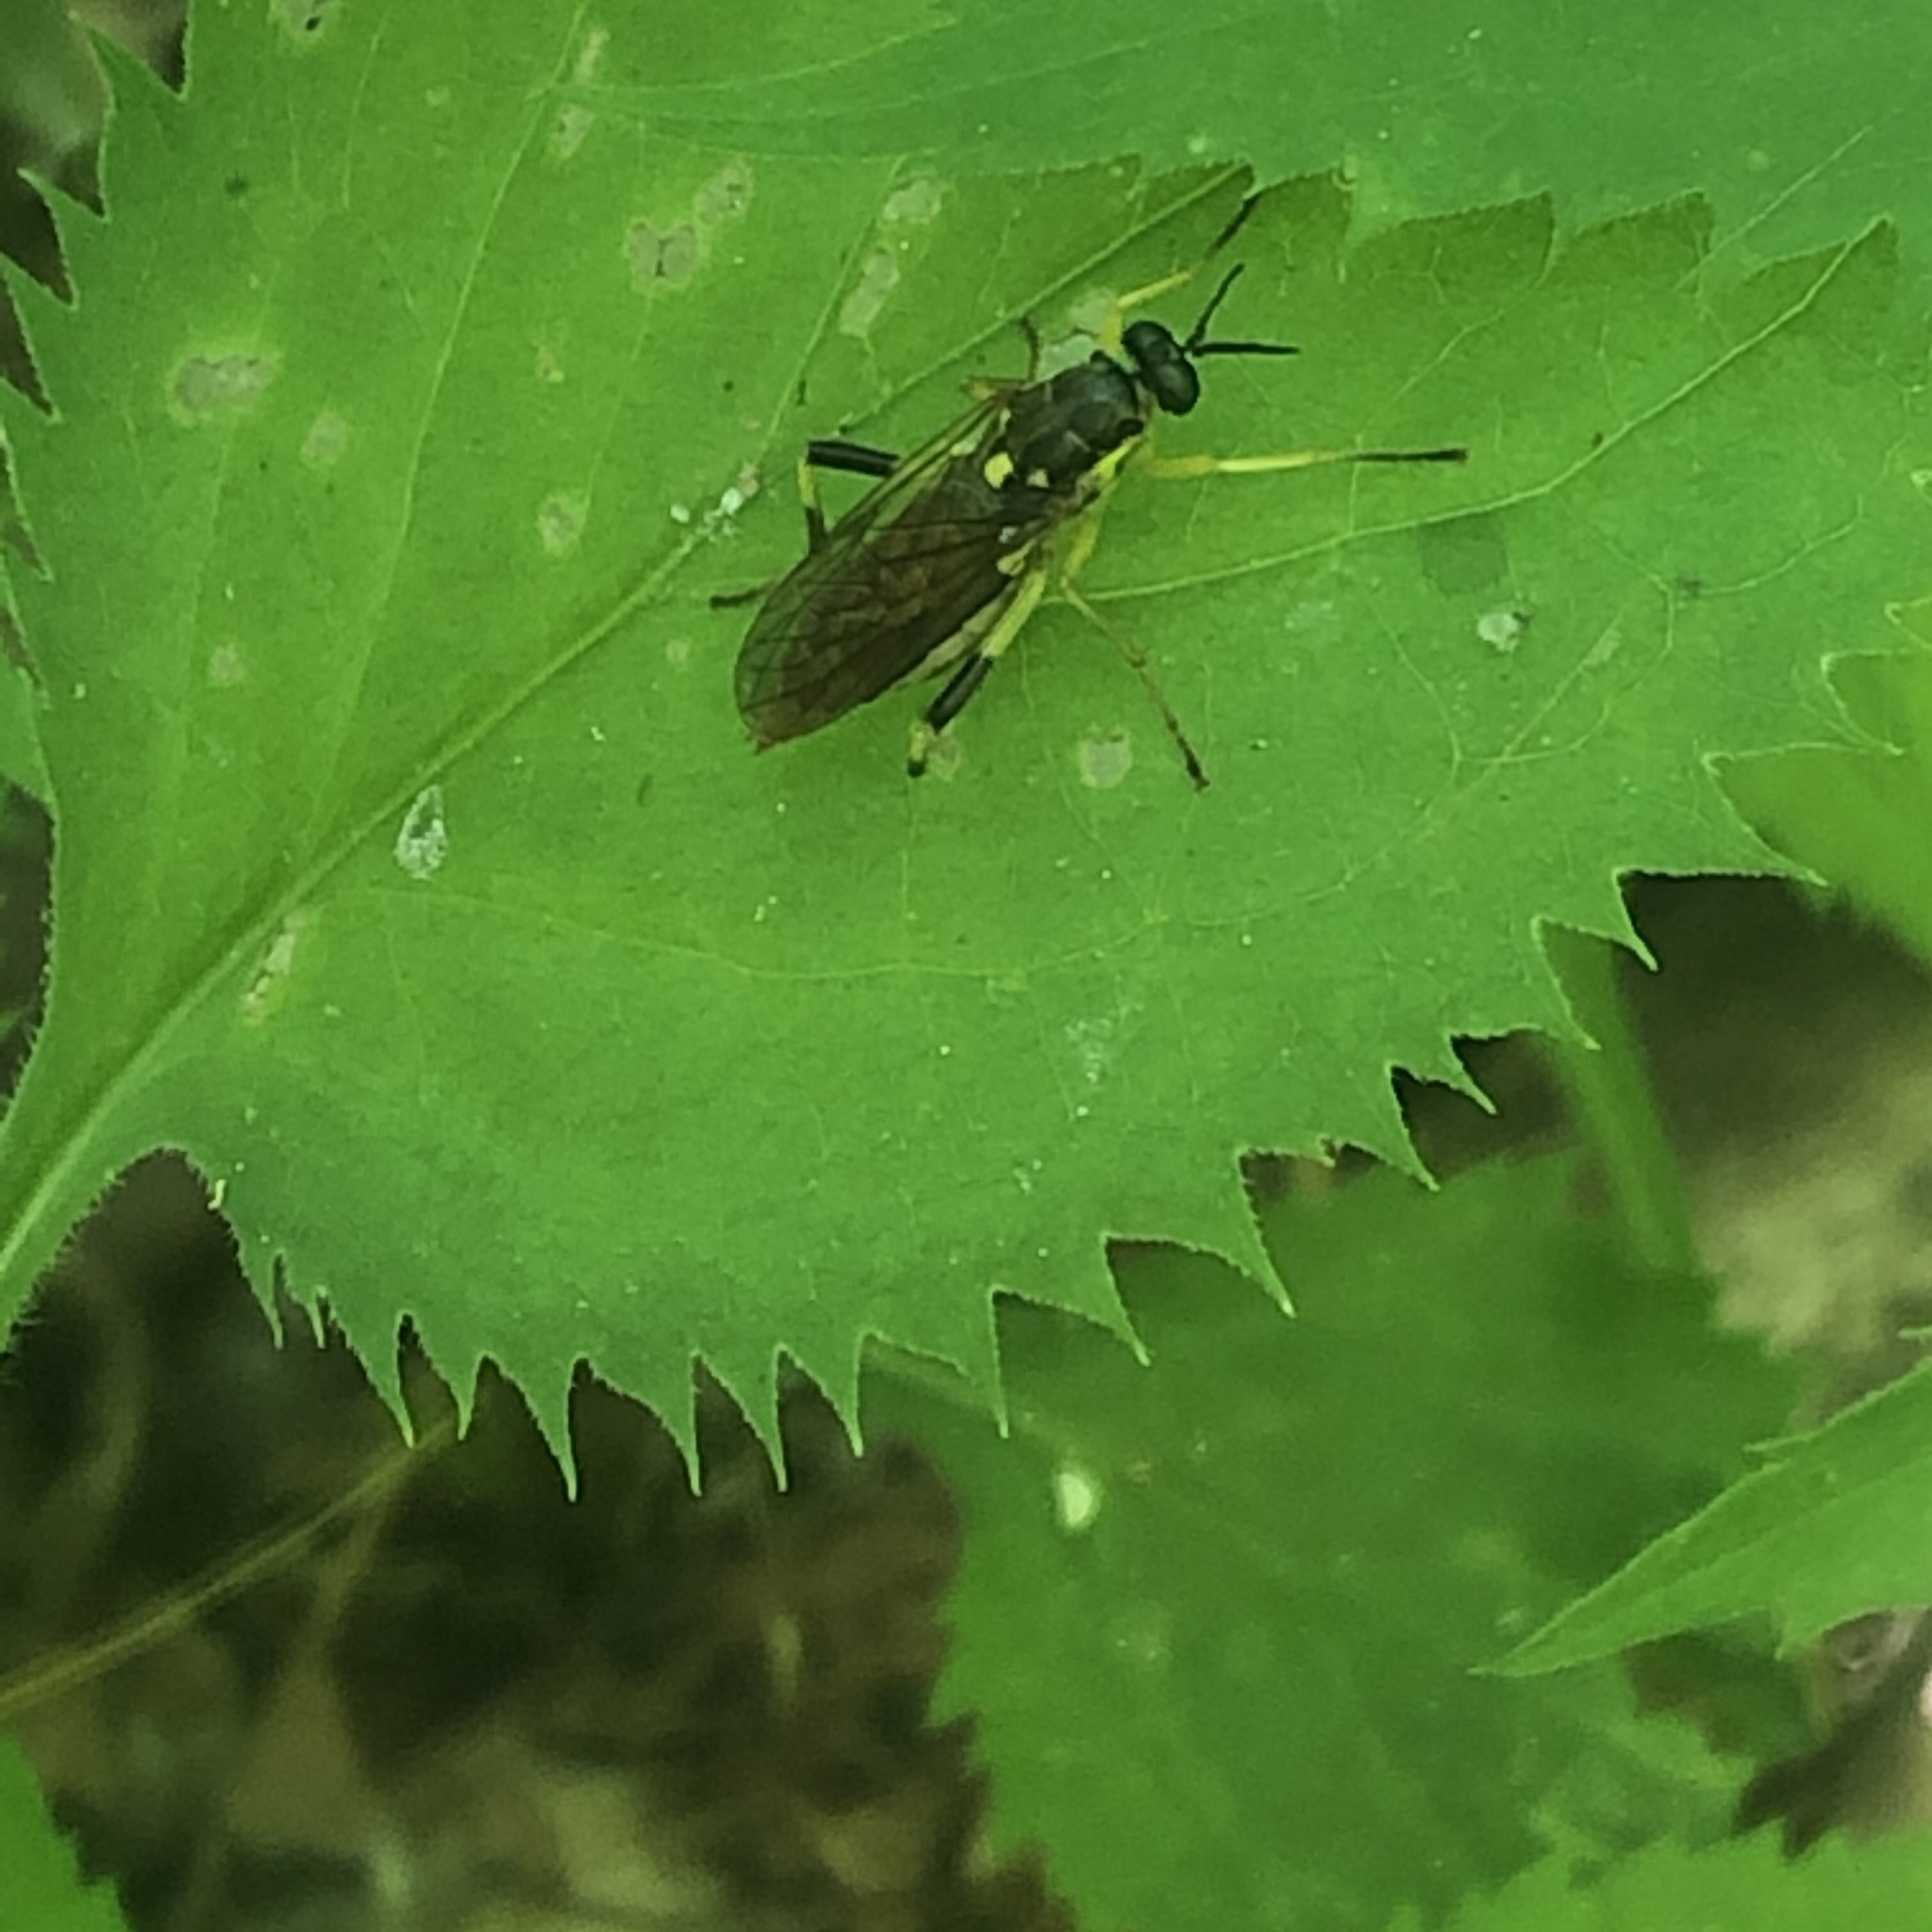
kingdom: Animalia
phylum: Arthropoda
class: Insecta
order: Diptera
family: Xylomyidae
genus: Xylomya
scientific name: Xylomya simillima
